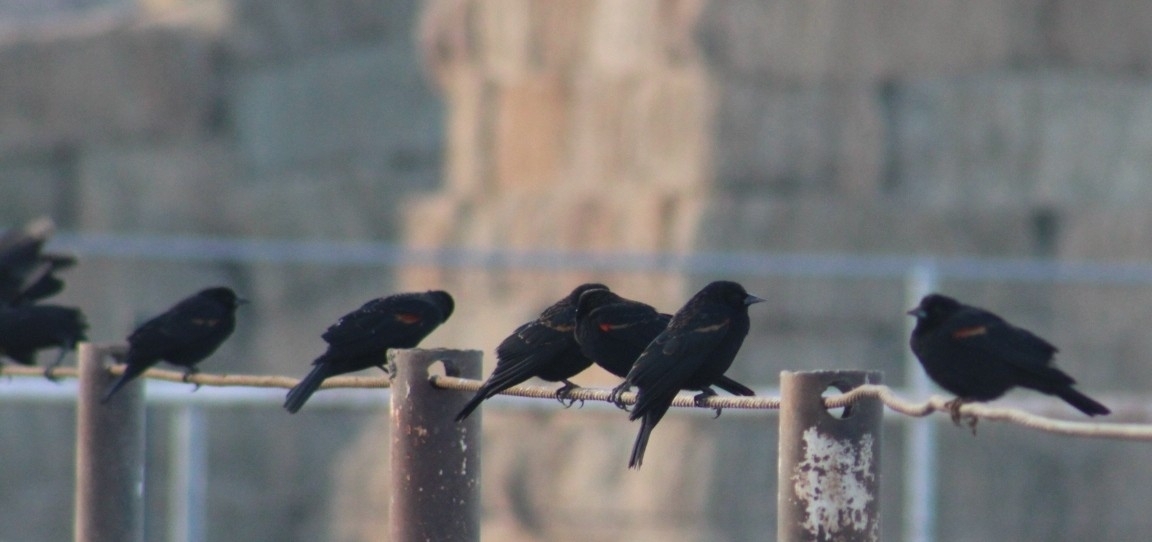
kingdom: Animalia
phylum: Chordata
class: Aves
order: Passeriformes
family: Icteridae
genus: Agelaius
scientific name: Agelaius phoeniceus
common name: Red-winged blackbird
